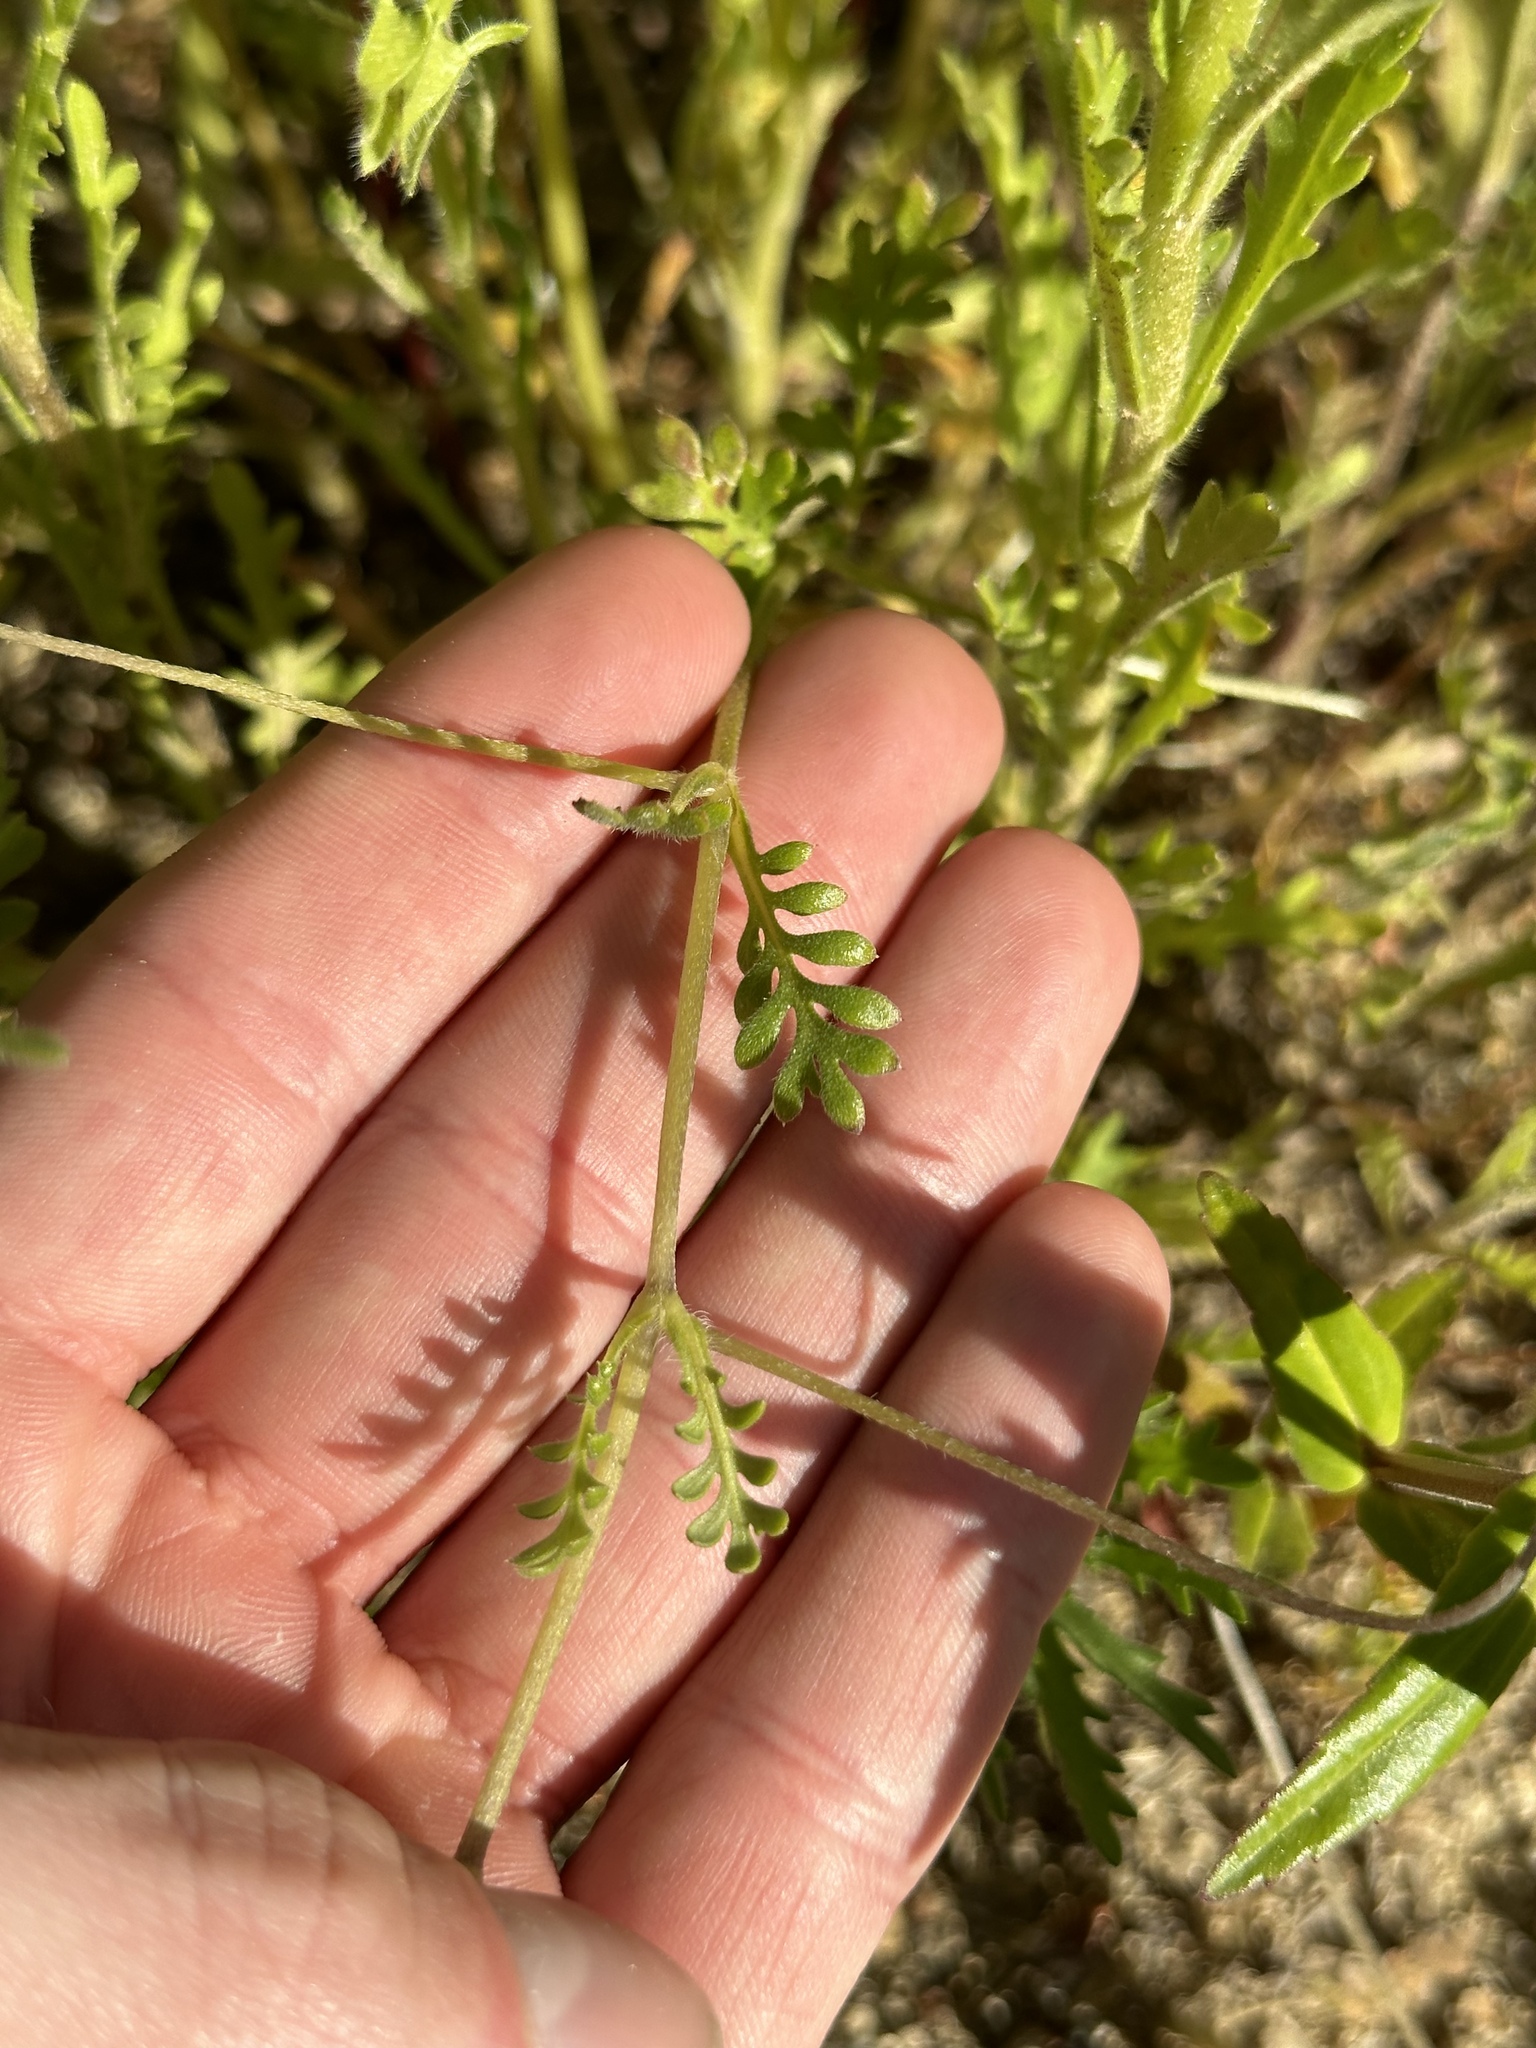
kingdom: Plantae
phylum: Tracheophyta
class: Magnoliopsida
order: Boraginales
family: Hydrophyllaceae
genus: Nemophila
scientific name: Nemophila menziesii
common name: Baby's-blue-eyes
